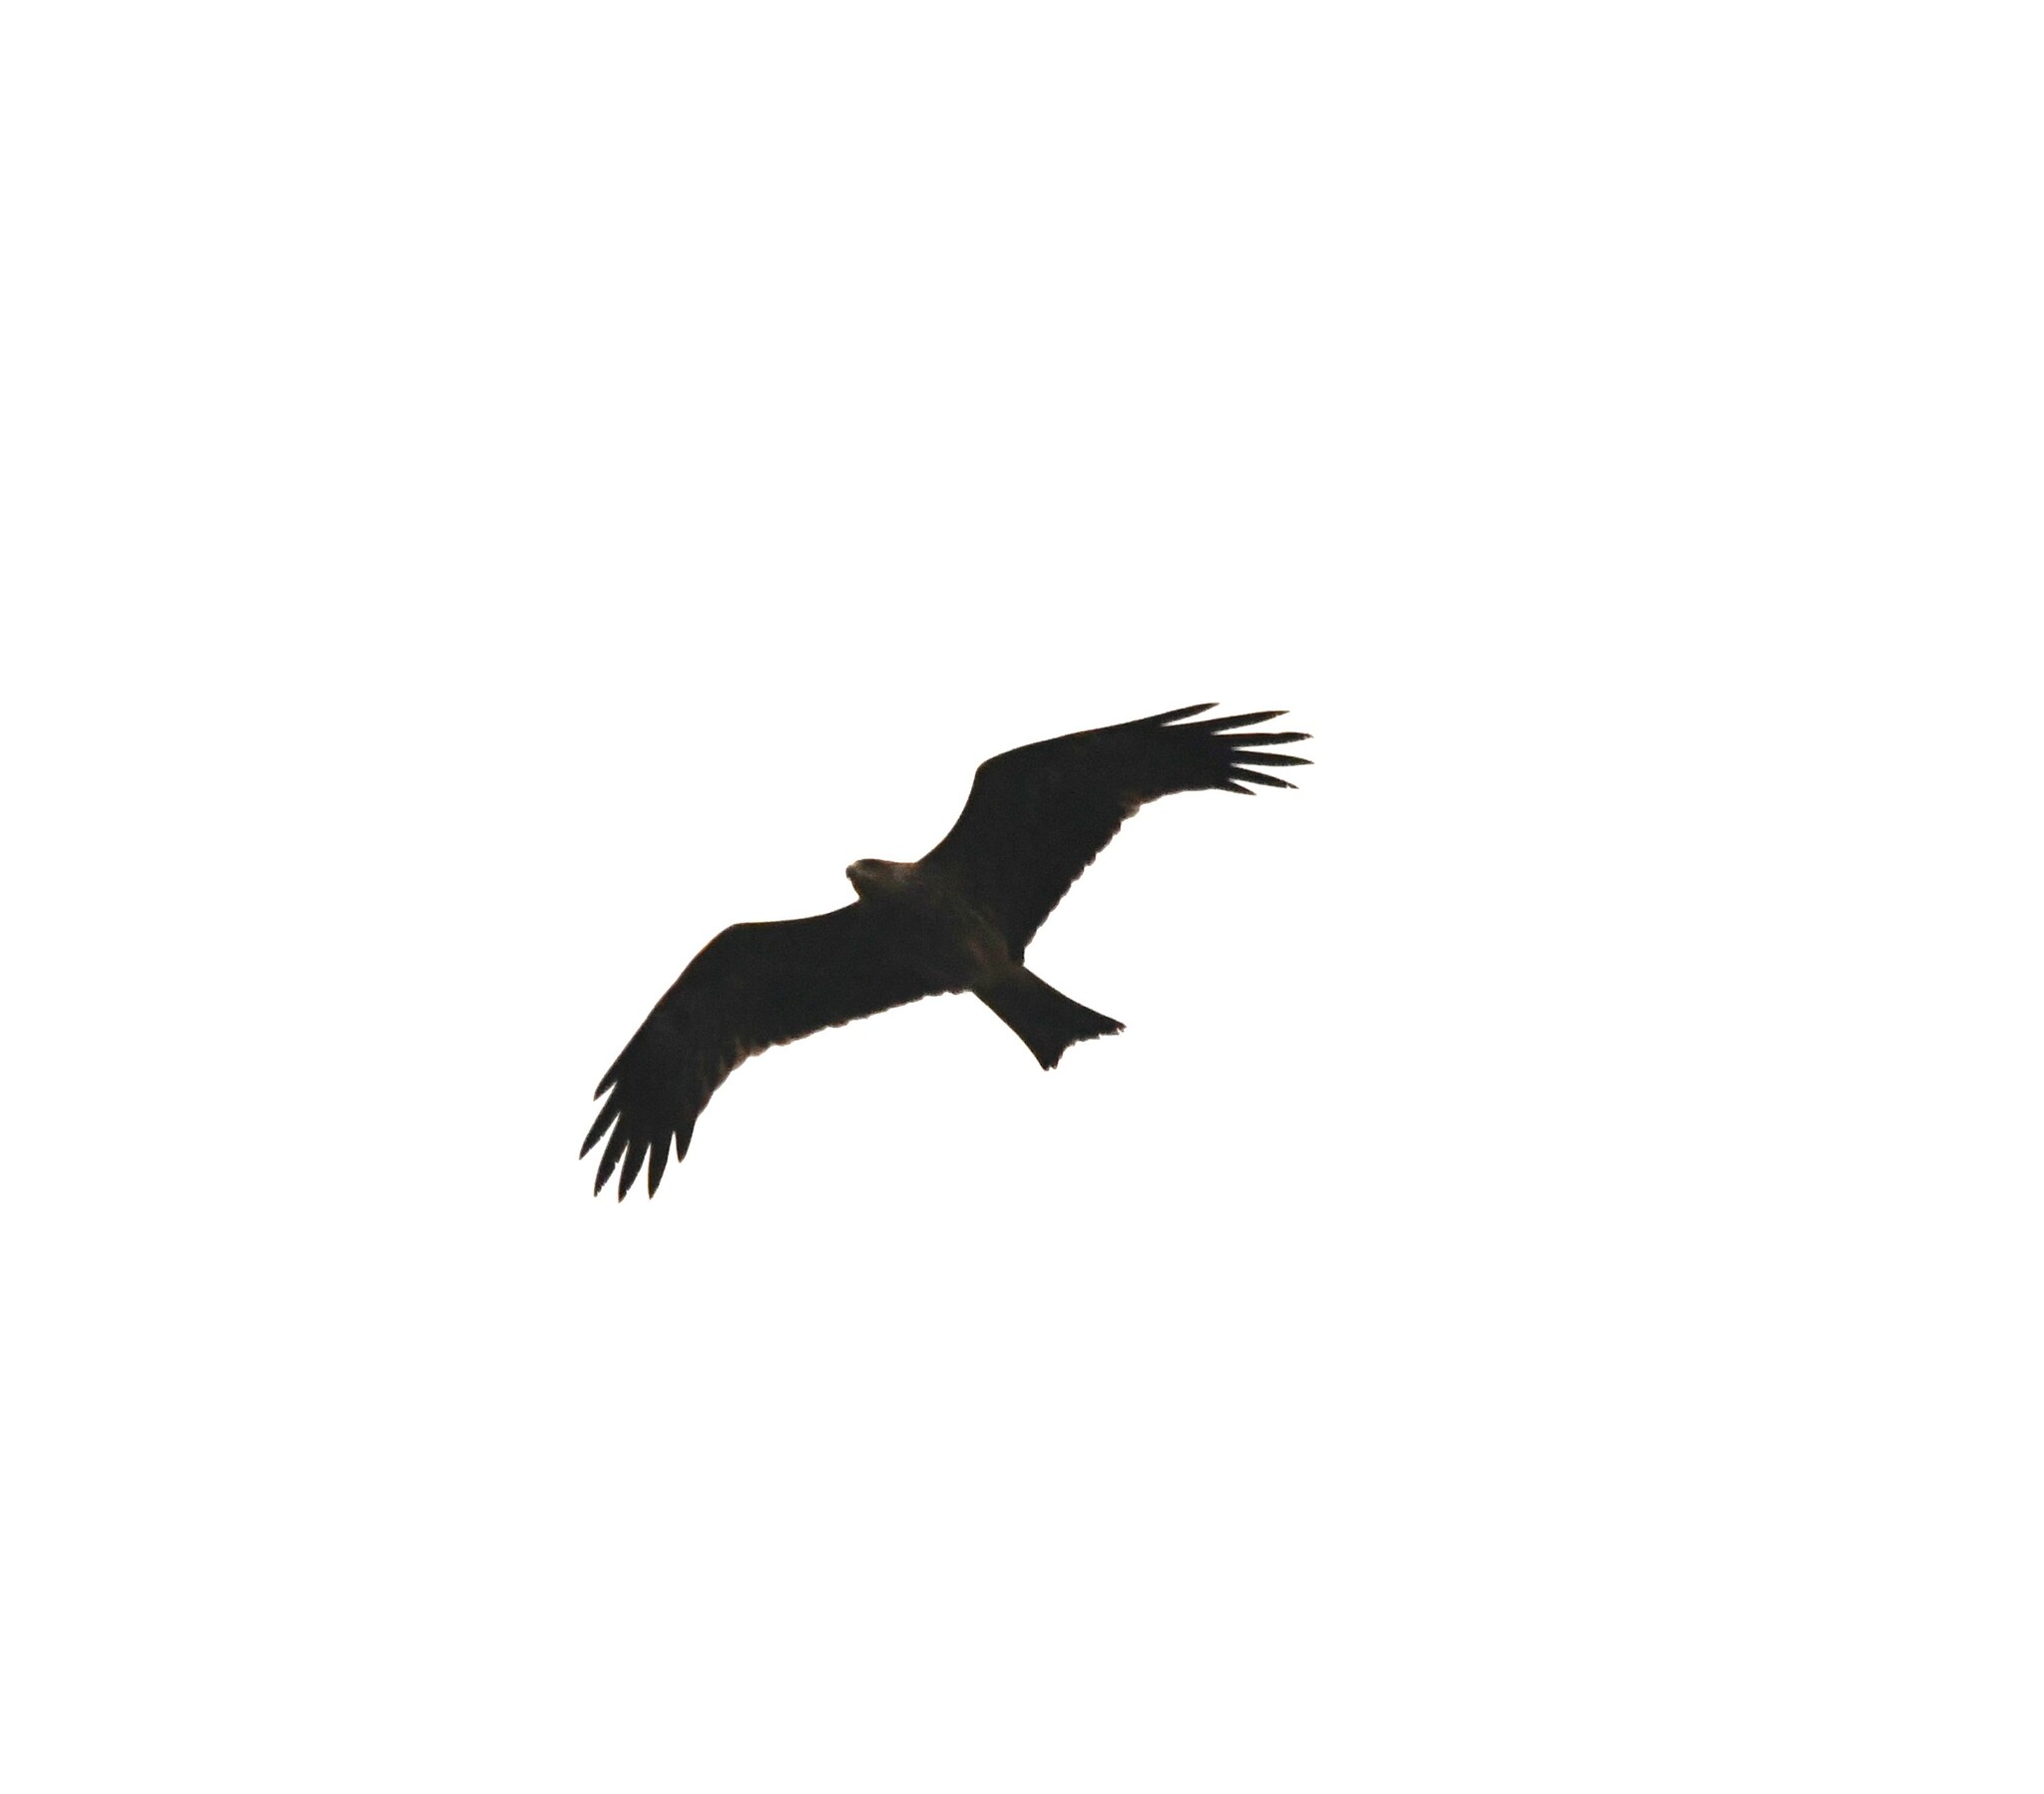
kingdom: Animalia
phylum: Chordata
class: Aves
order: Accipitriformes
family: Accipitridae
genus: Milvus
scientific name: Milvus migrans
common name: Black kite
